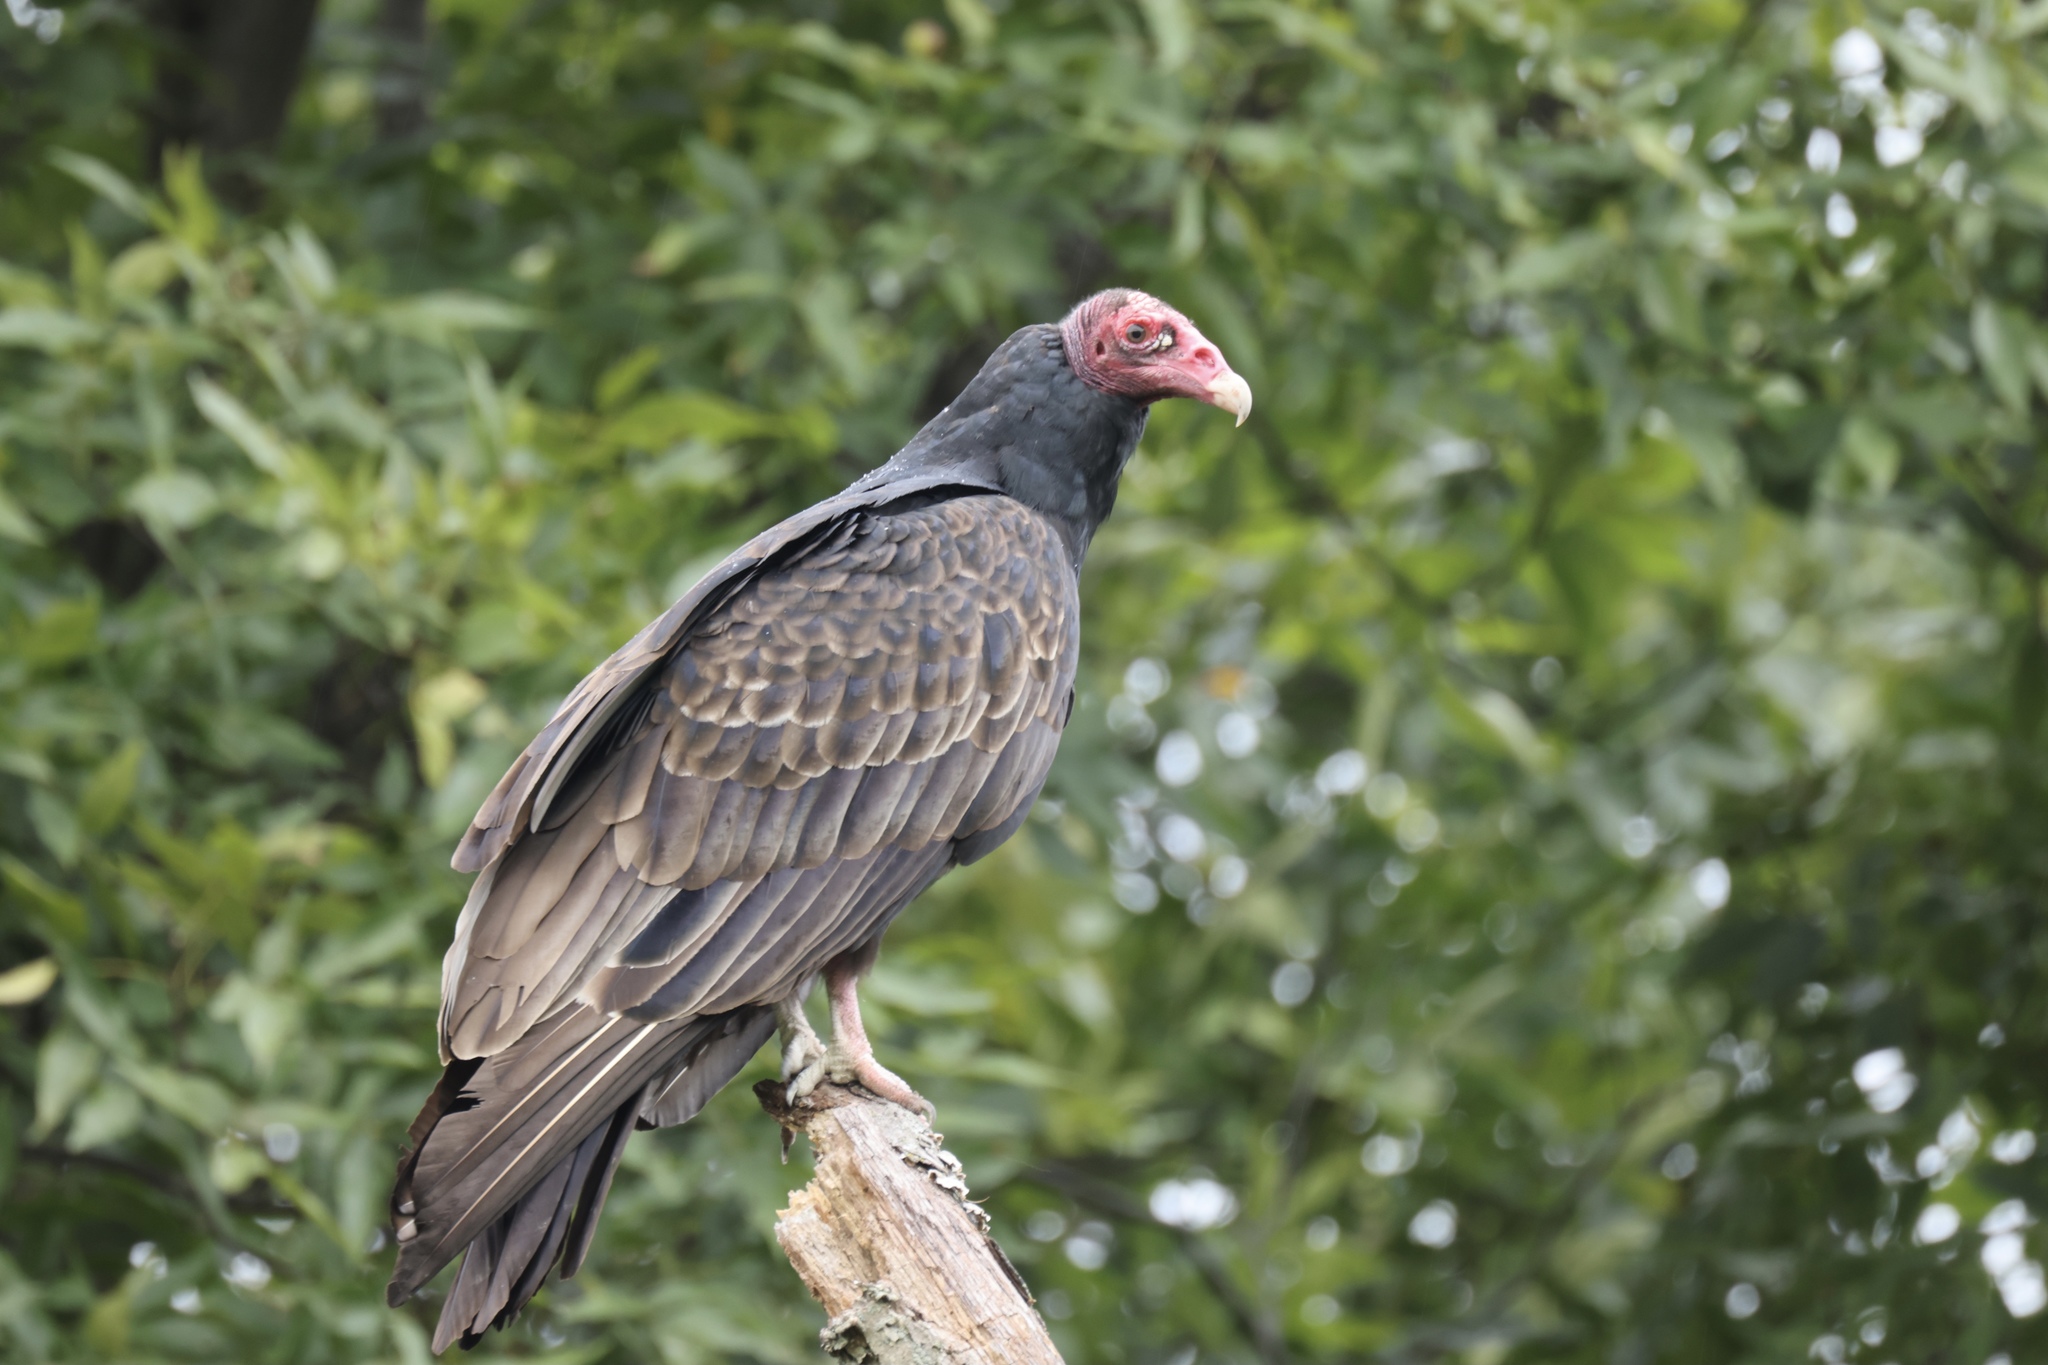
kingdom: Animalia
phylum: Chordata
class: Aves
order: Accipitriformes
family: Cathartidae
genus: Cathartes
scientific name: Cathartes aura
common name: Turkey vulture
